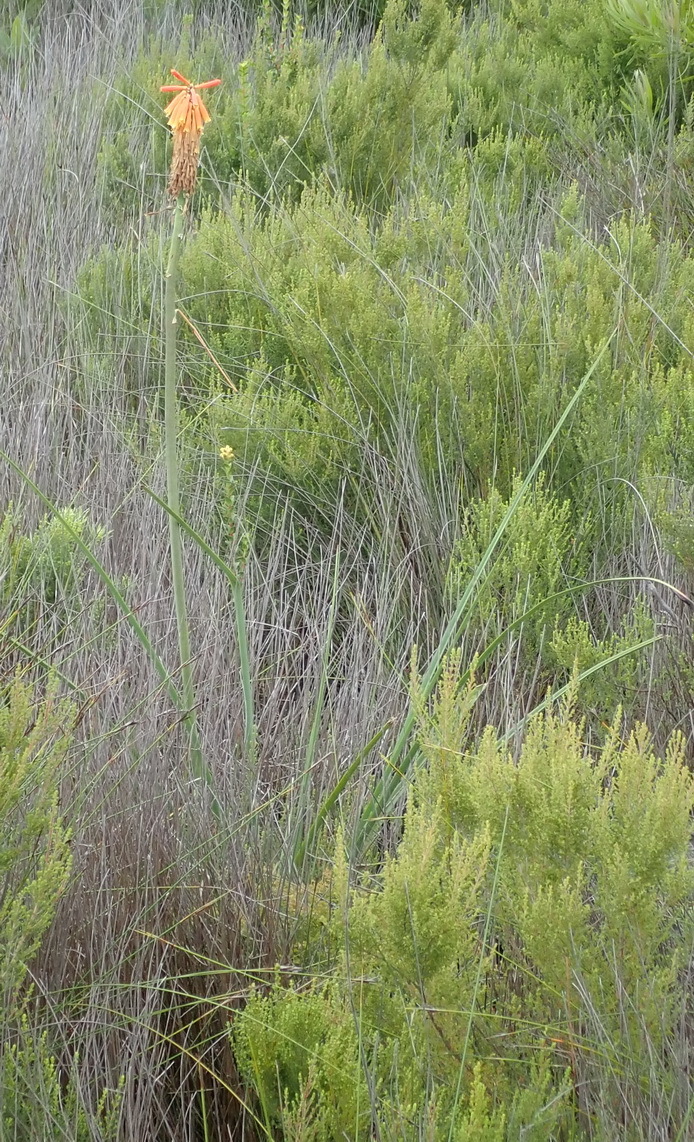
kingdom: Plantae
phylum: Tracheophyta
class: Liliopsida
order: Asparagales
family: Asphodelaceae
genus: Kniphofia
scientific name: Kniphofia uvaria
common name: Red-hot-poker
